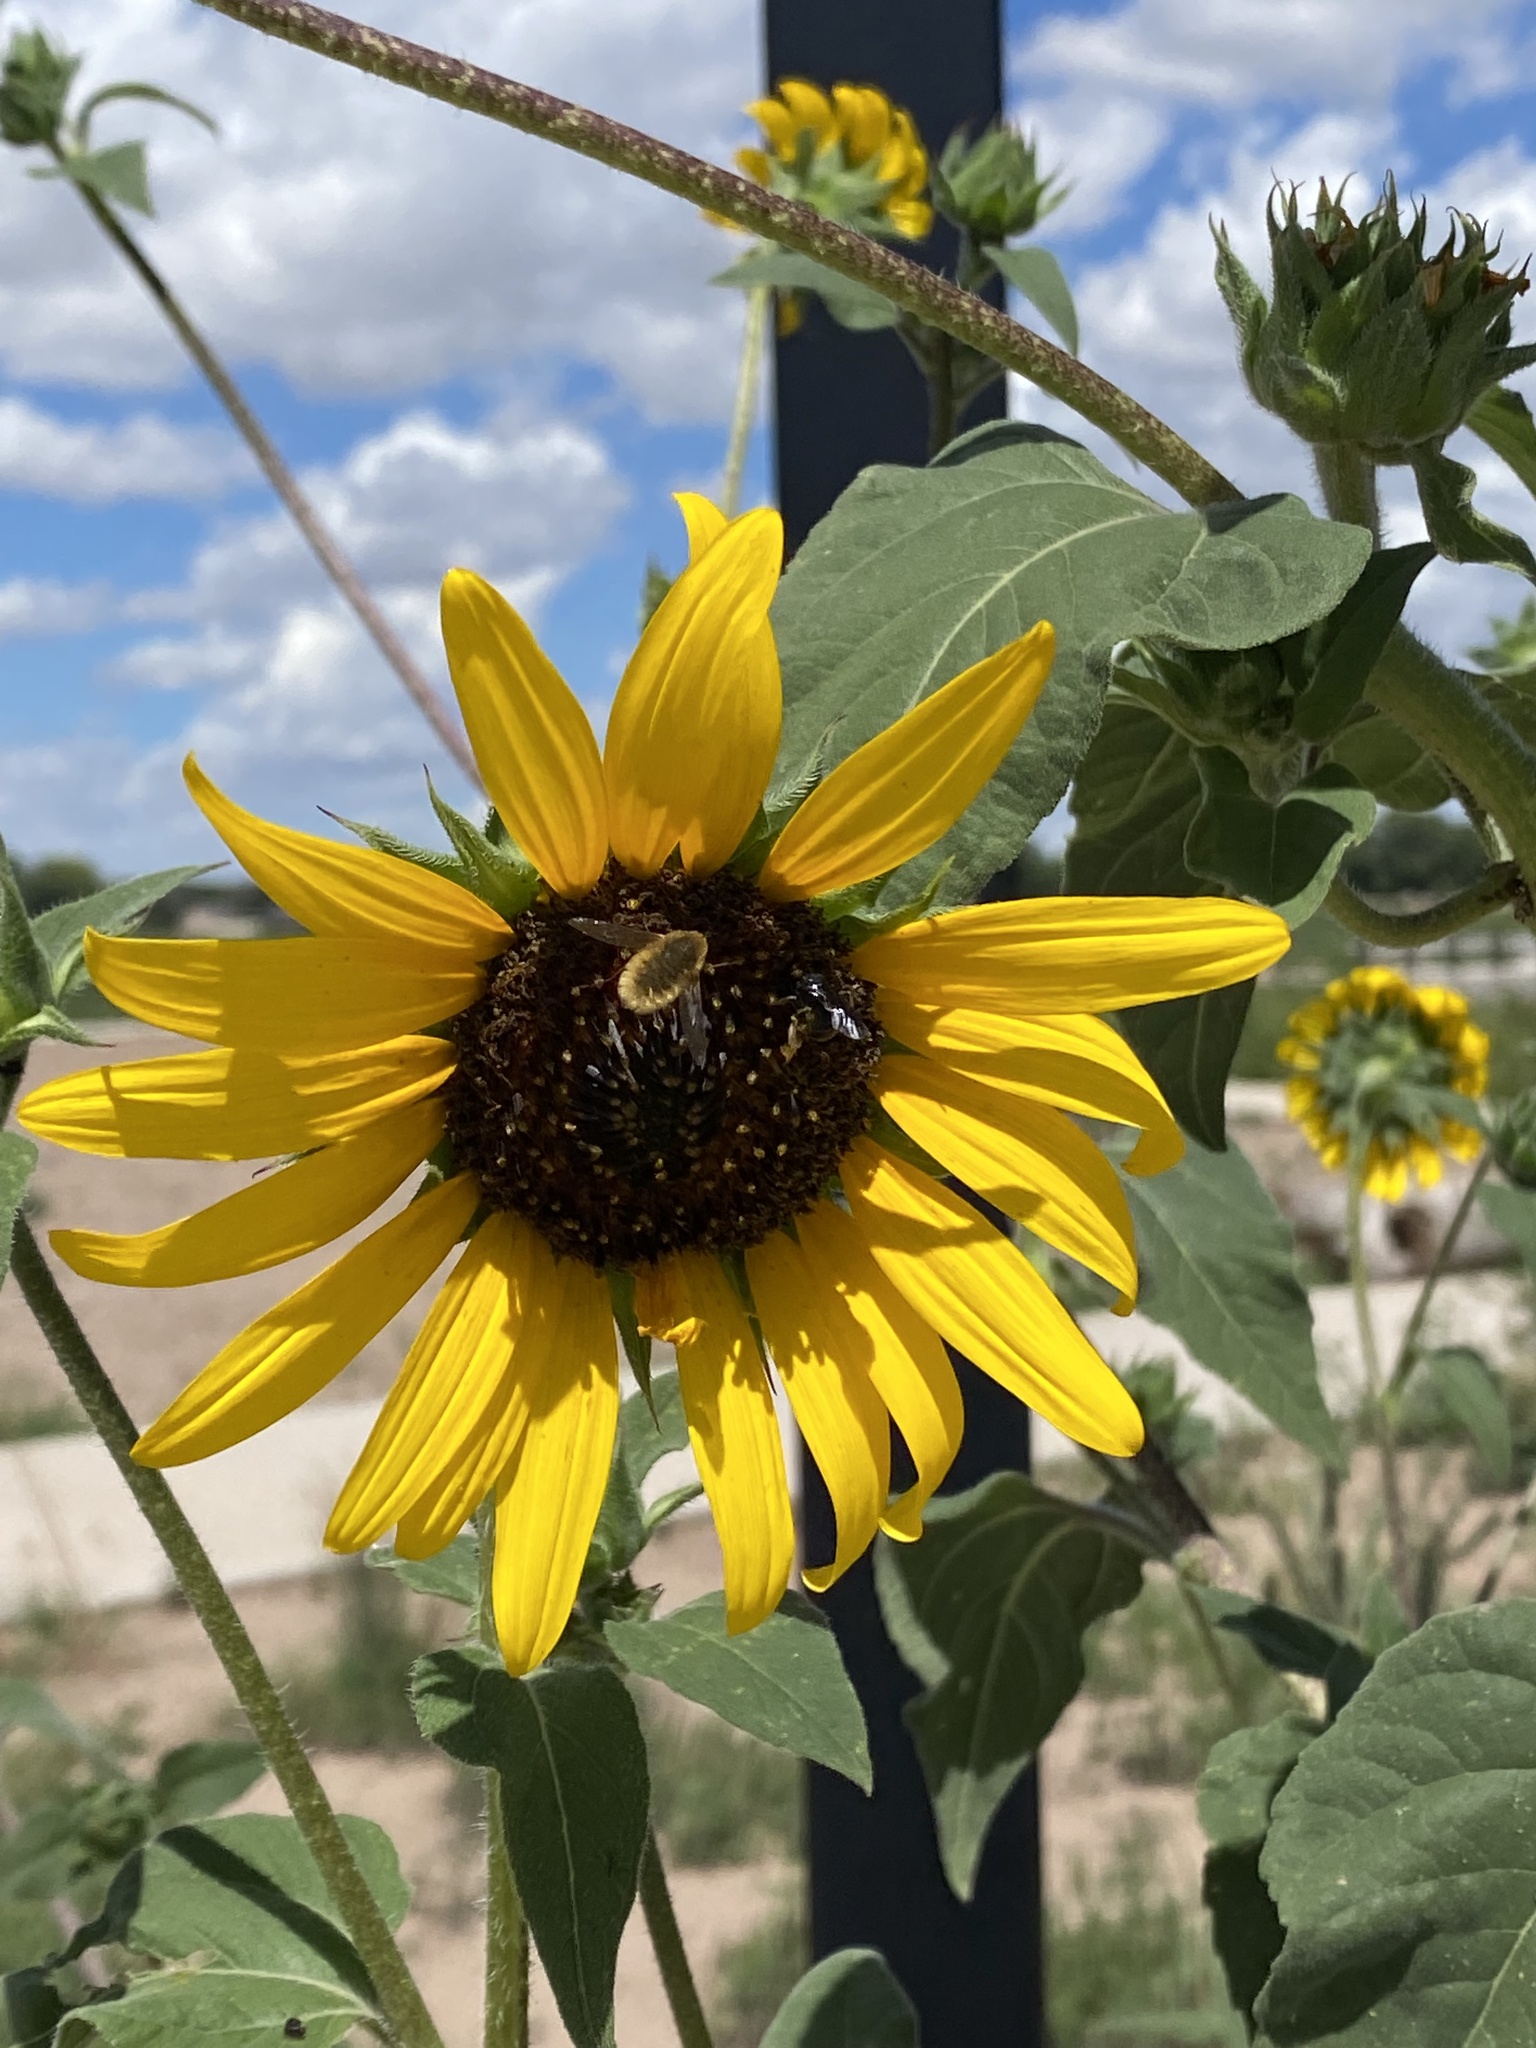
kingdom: Plantae
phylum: Tracheophyta
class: Magnoliopsida
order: Asterales
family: Asteraceae
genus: Helianthus
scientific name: Helianthus annuus
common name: Sunflower
